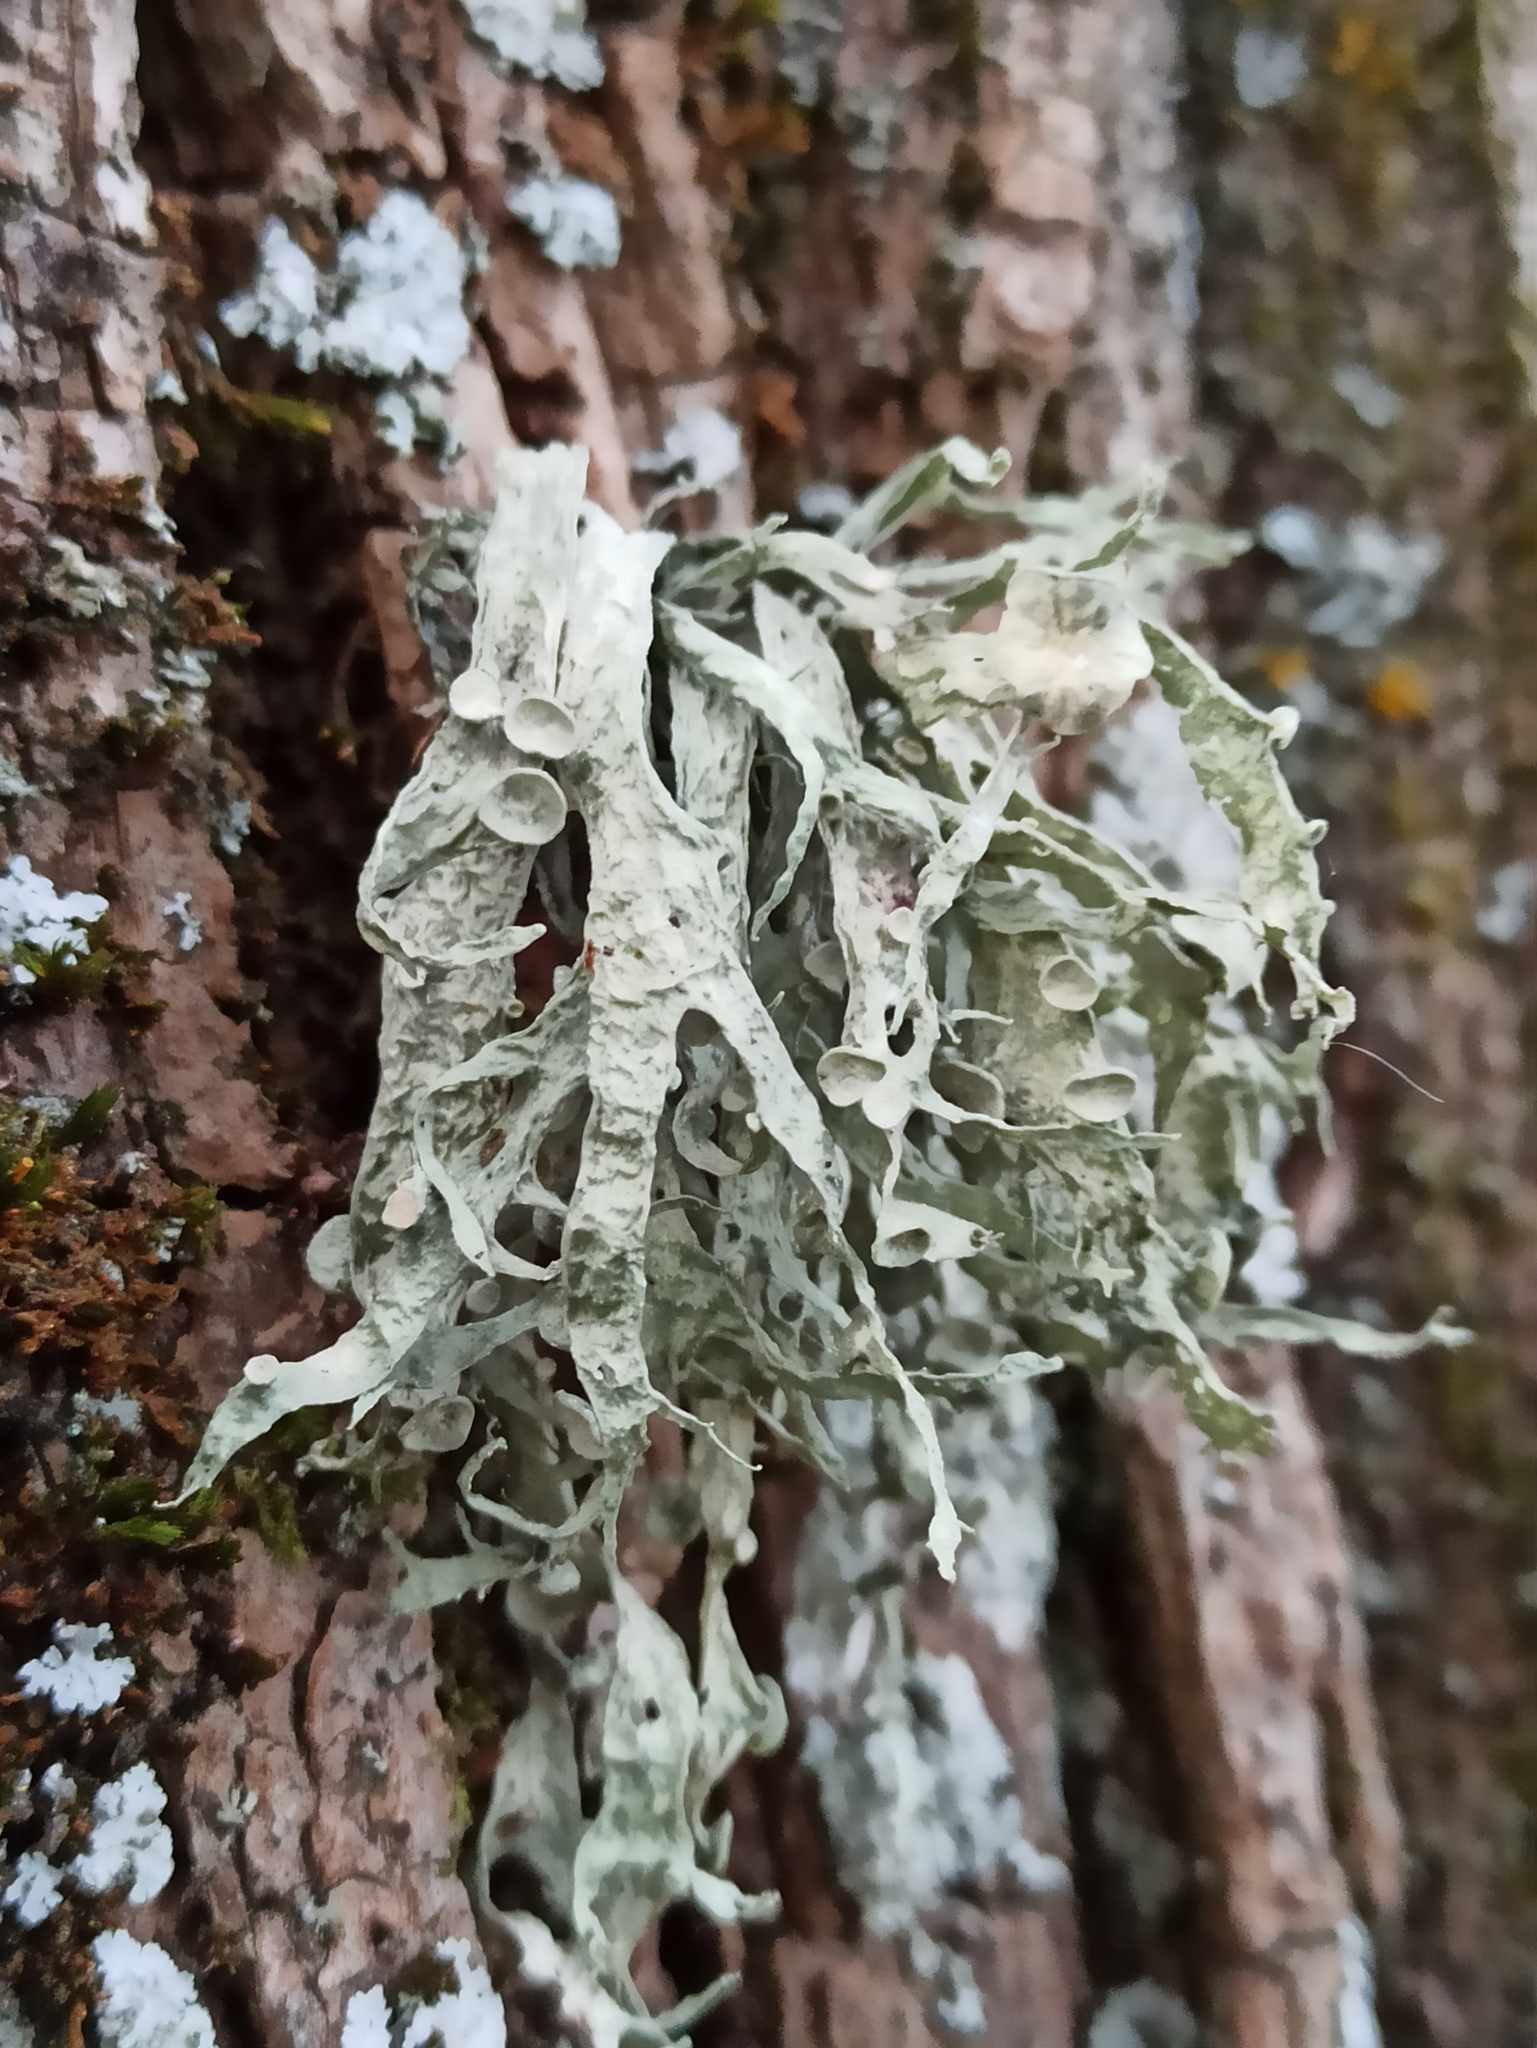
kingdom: Fungi
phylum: Ascomycota
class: Lecanoromycetes
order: Lecanorales
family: Ramalinaceae
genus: Ramalina
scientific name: Ramalina fraxinea
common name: Cartilage lichen
